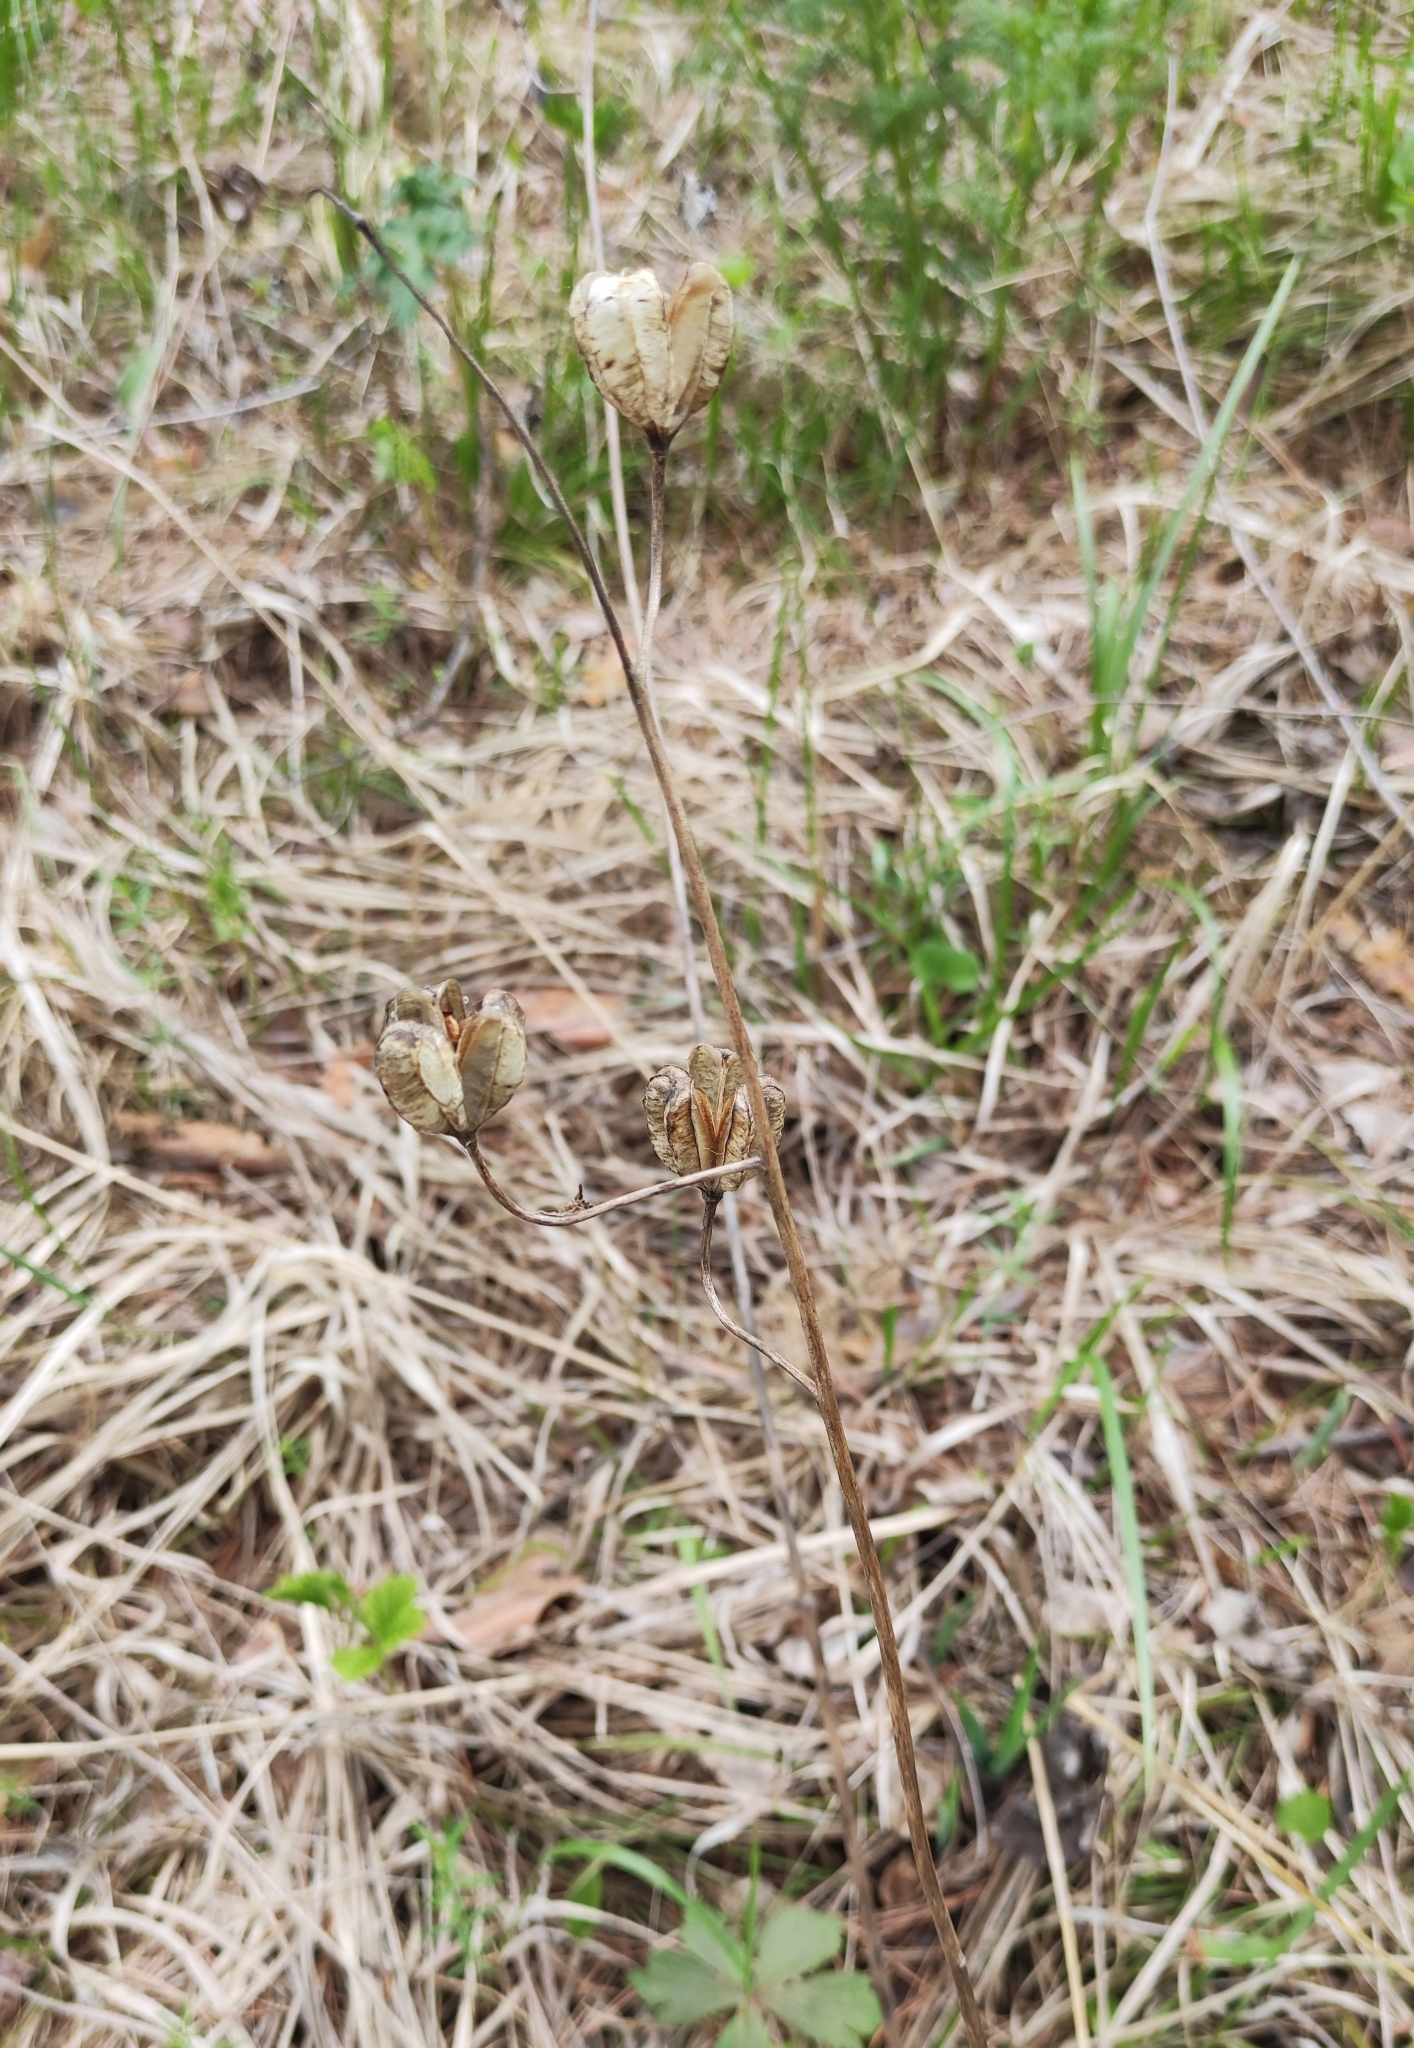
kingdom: Plantae
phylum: Tracheophyta
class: Liliopsida
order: Liliales
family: Liliaceae
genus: Lilium
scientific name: Lilium martagon
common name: Martagon lily
